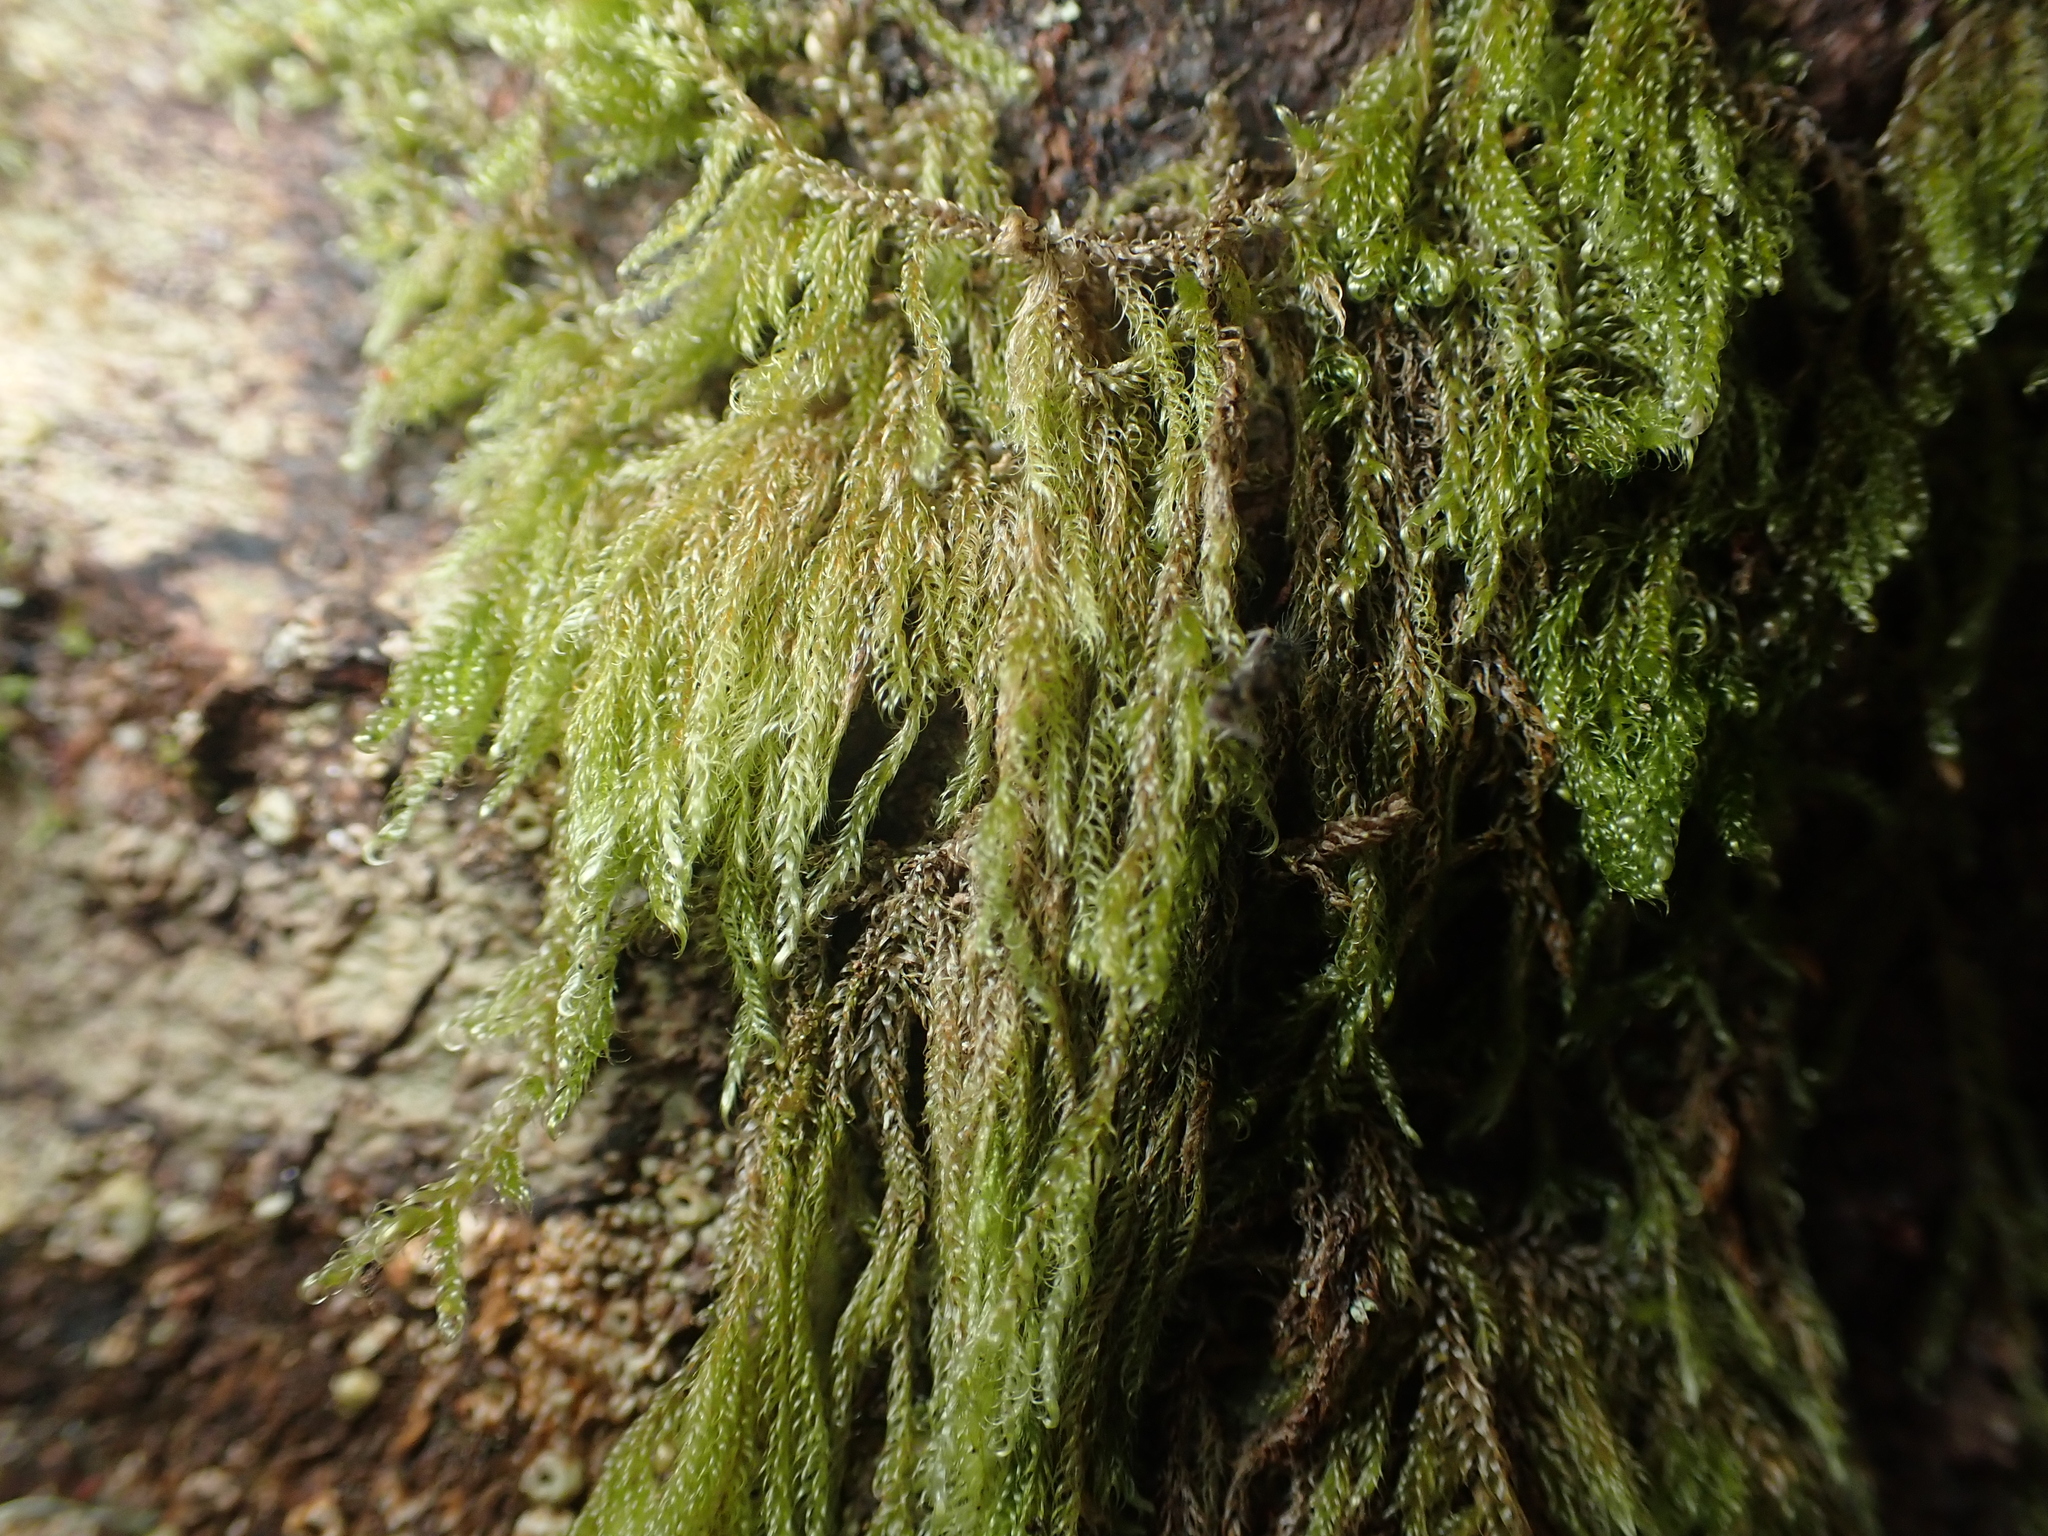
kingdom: Plantae
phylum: Bryophyta
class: Bryopsida
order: Hypnales
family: Hypnaceae
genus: Hypnum
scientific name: Hypnum cupressiforme
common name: Cypress-leaved plait-moss
